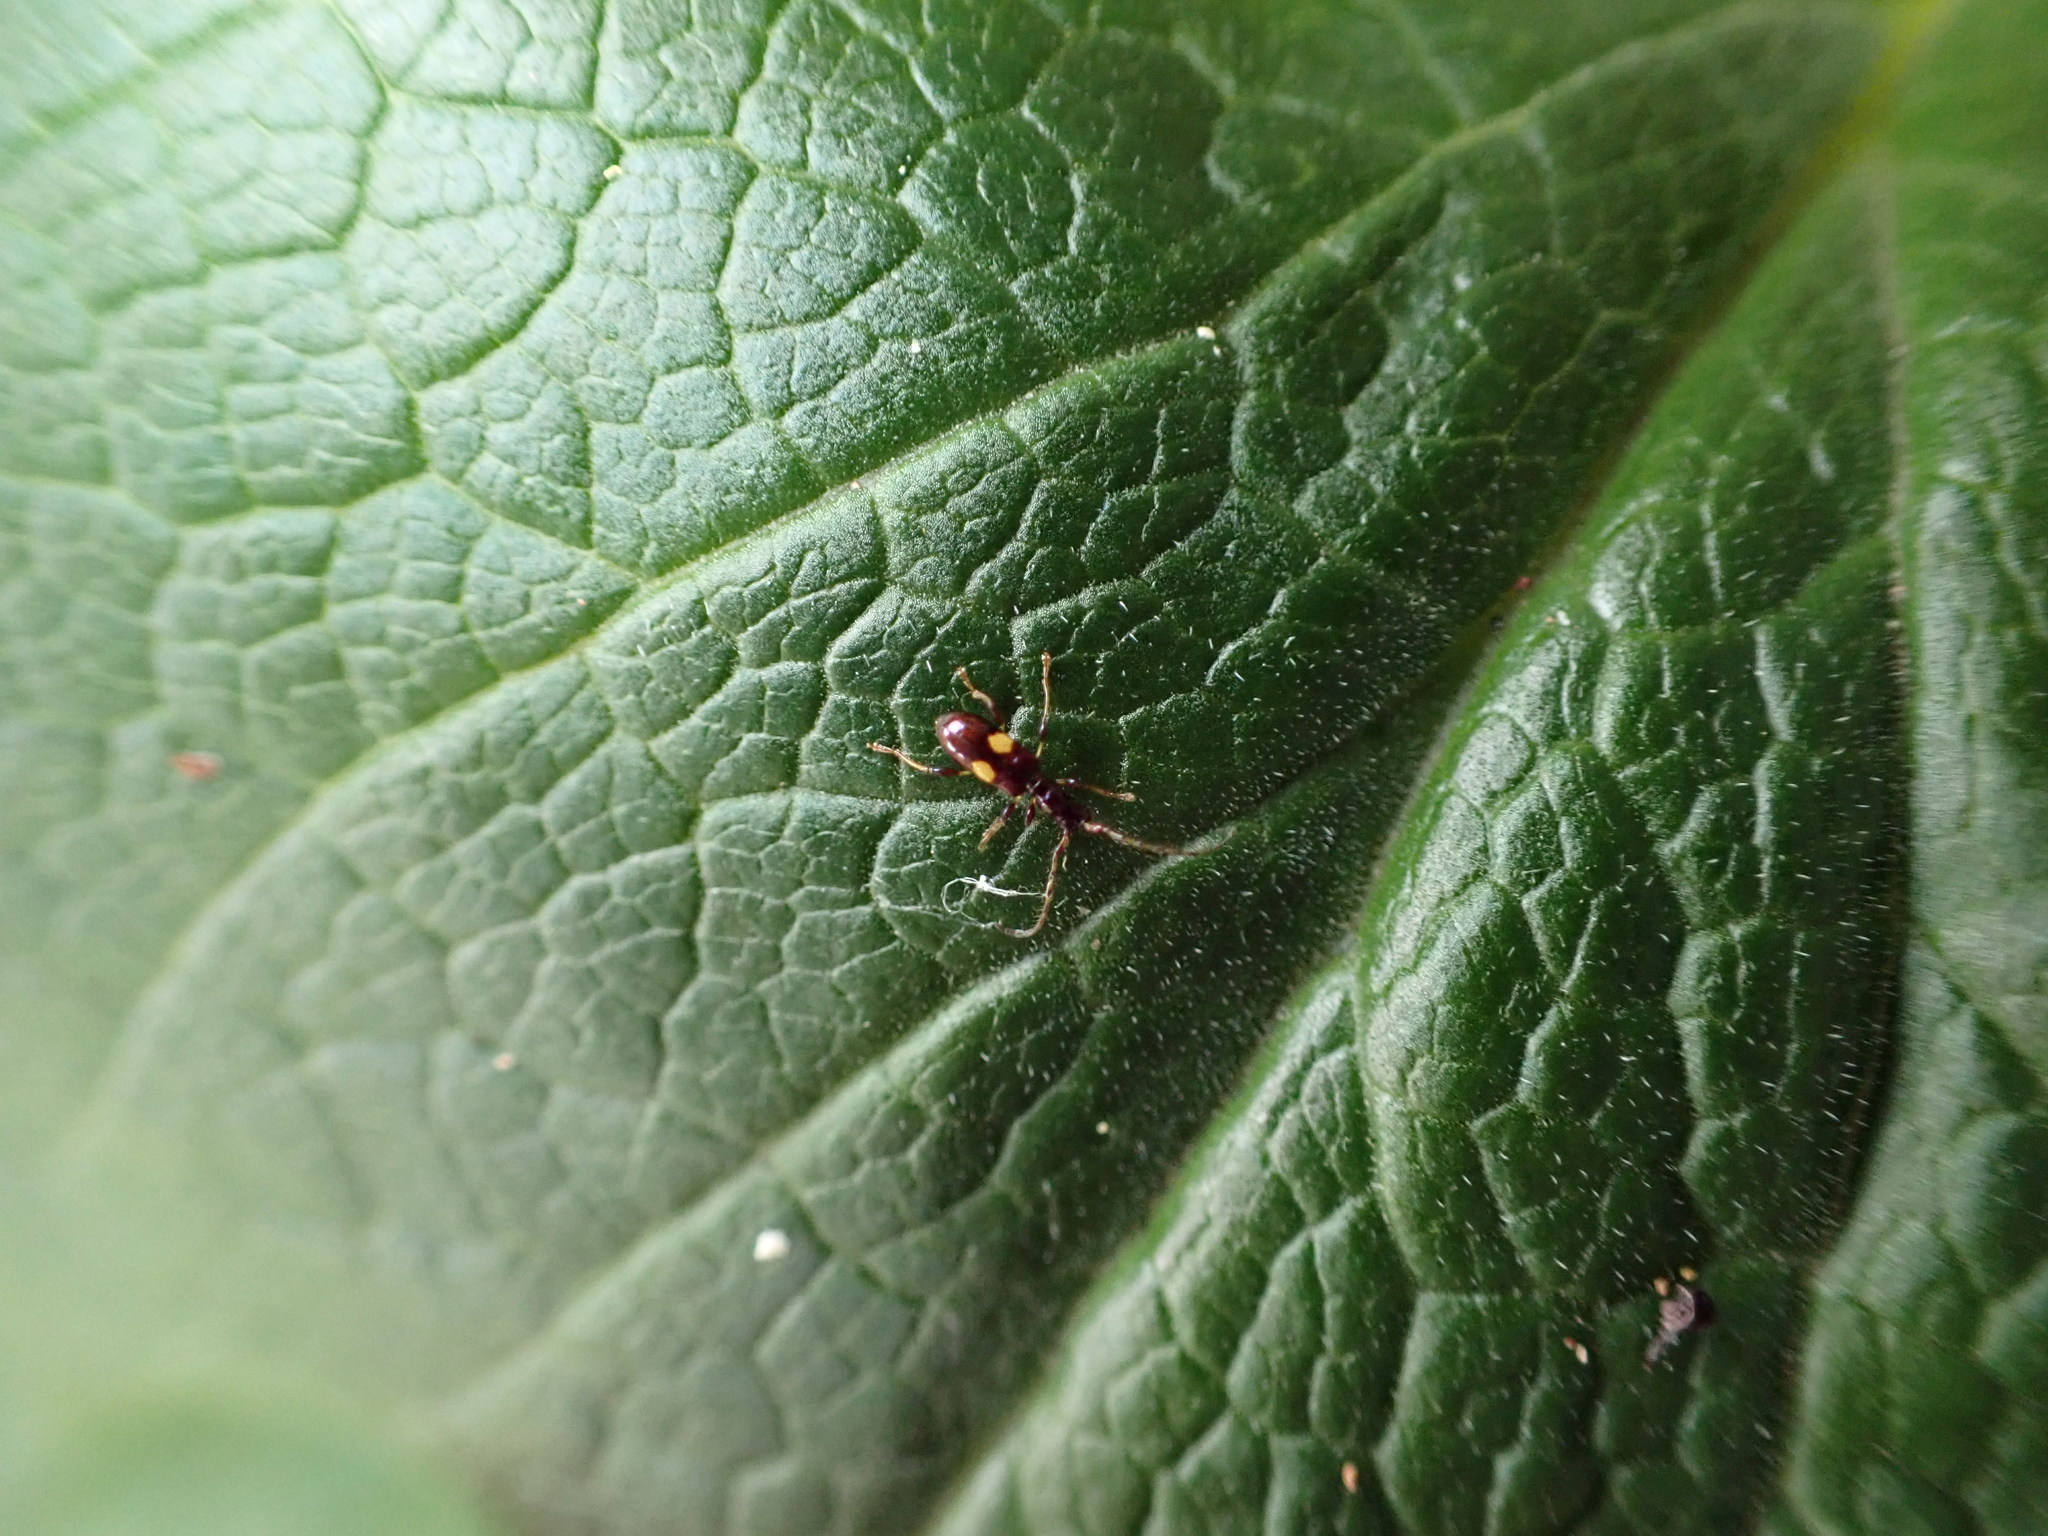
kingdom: Animalia
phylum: Arthropoda
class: Insecta
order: Coleoptera
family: Cerambycidae
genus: Zorion
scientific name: Zorion guttigerum
